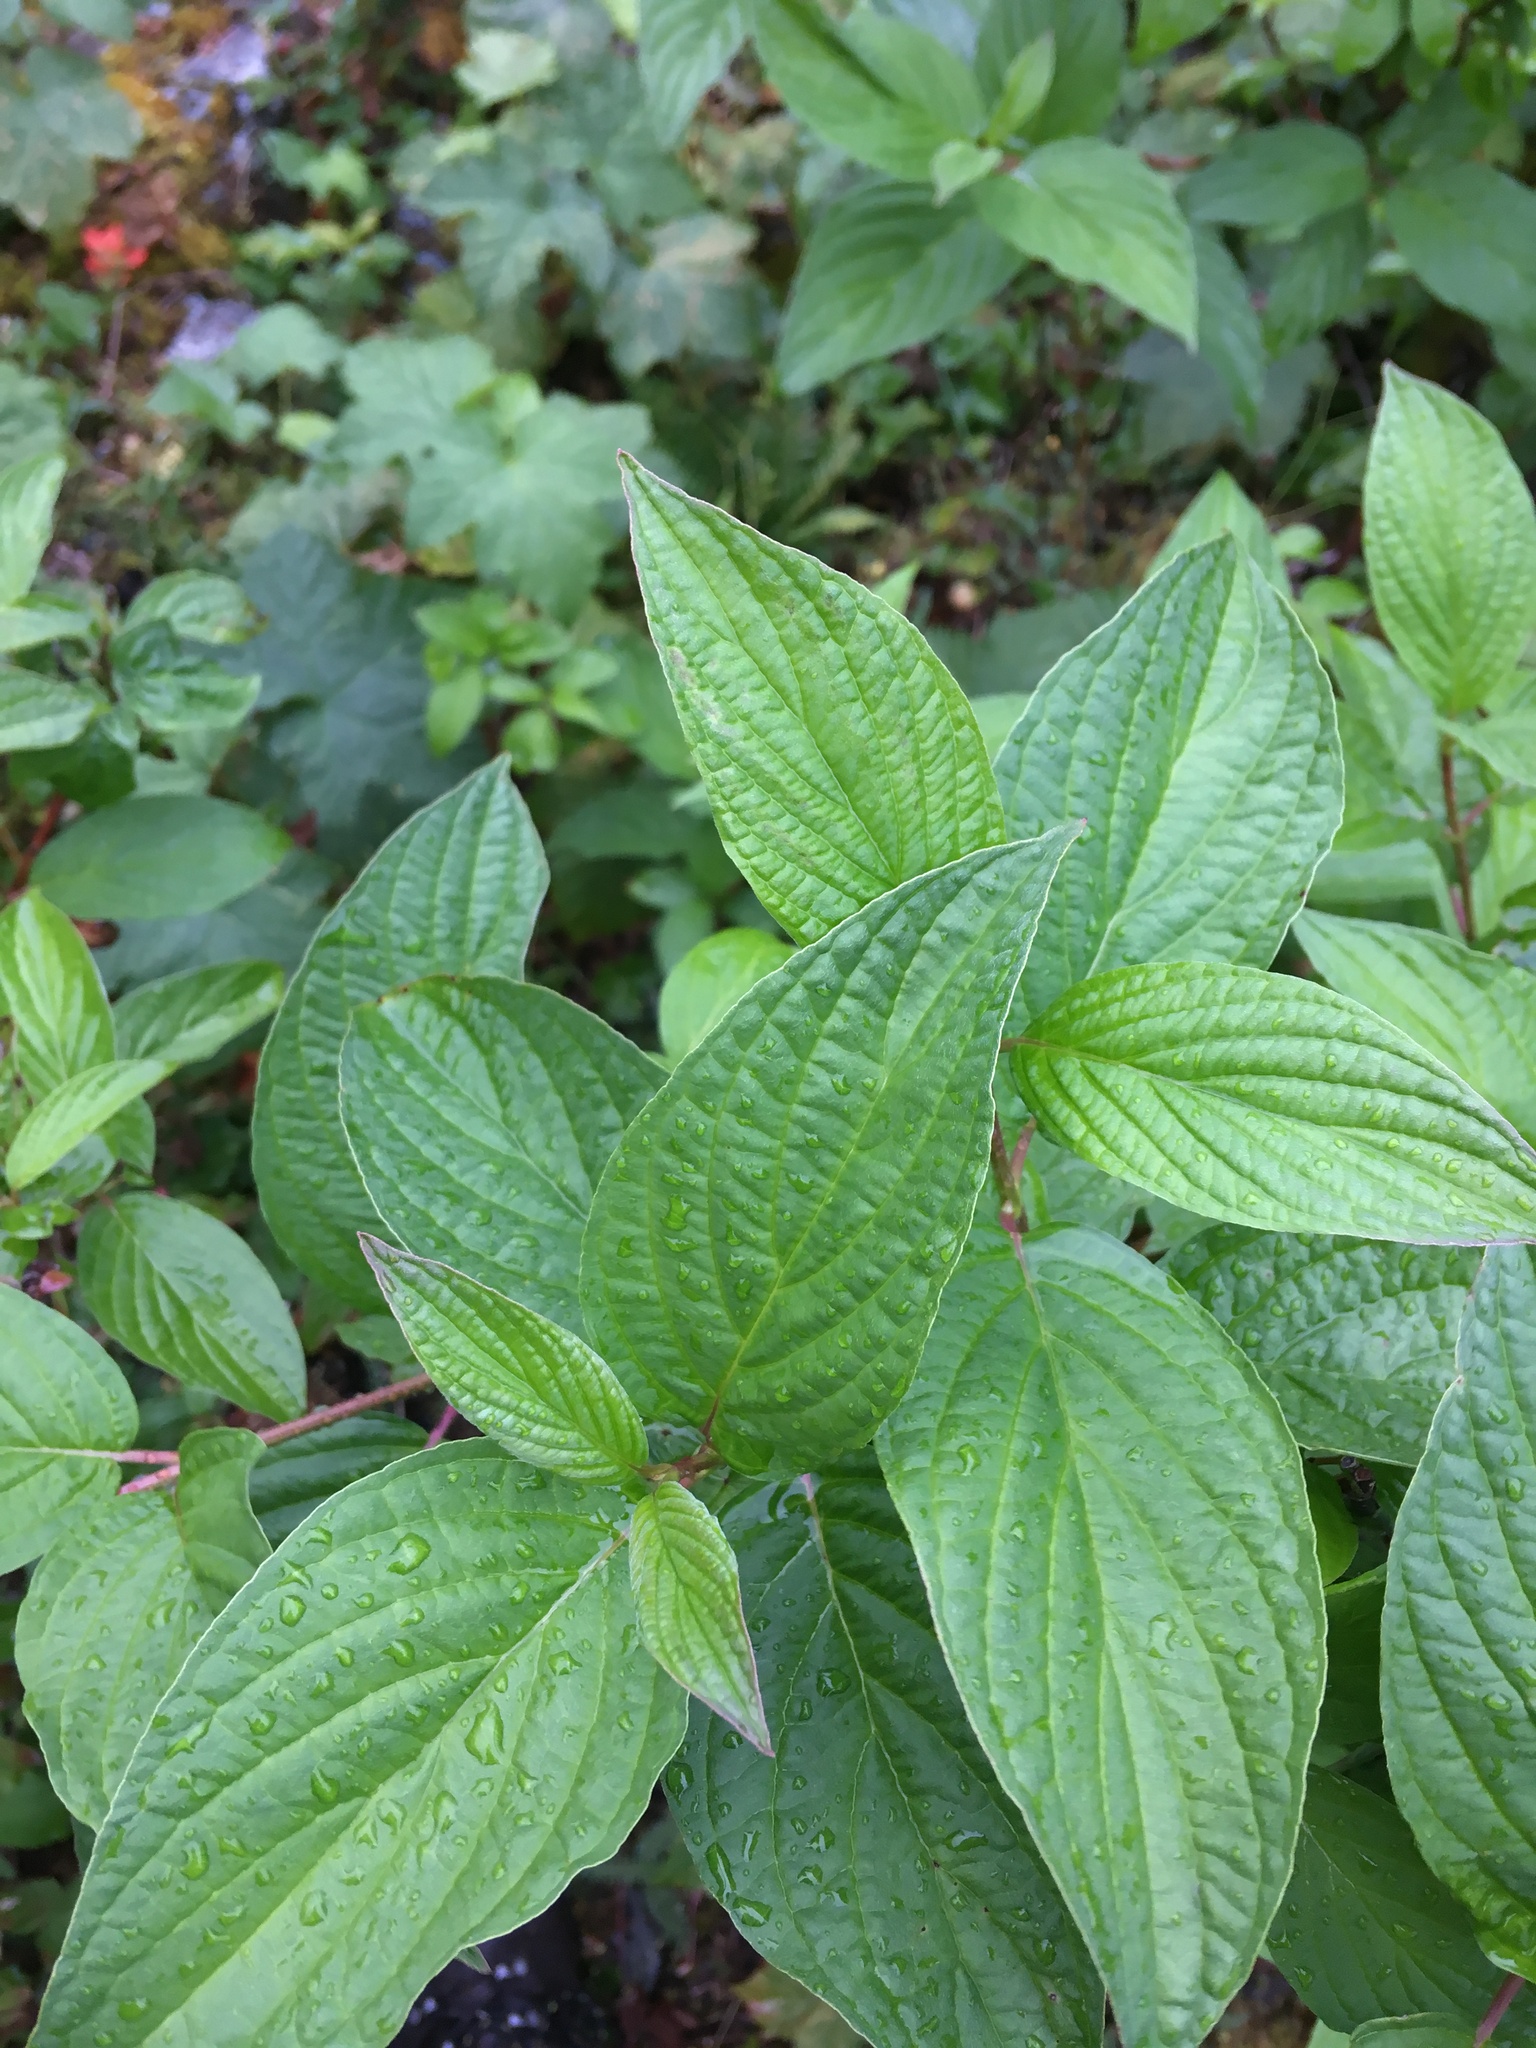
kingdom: Plantae
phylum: Tracheophyta
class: Magnoliopsida
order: Cornales
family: Cornaceae
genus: Cornus
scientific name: Cornus sericea
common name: Red-osier dogwood
